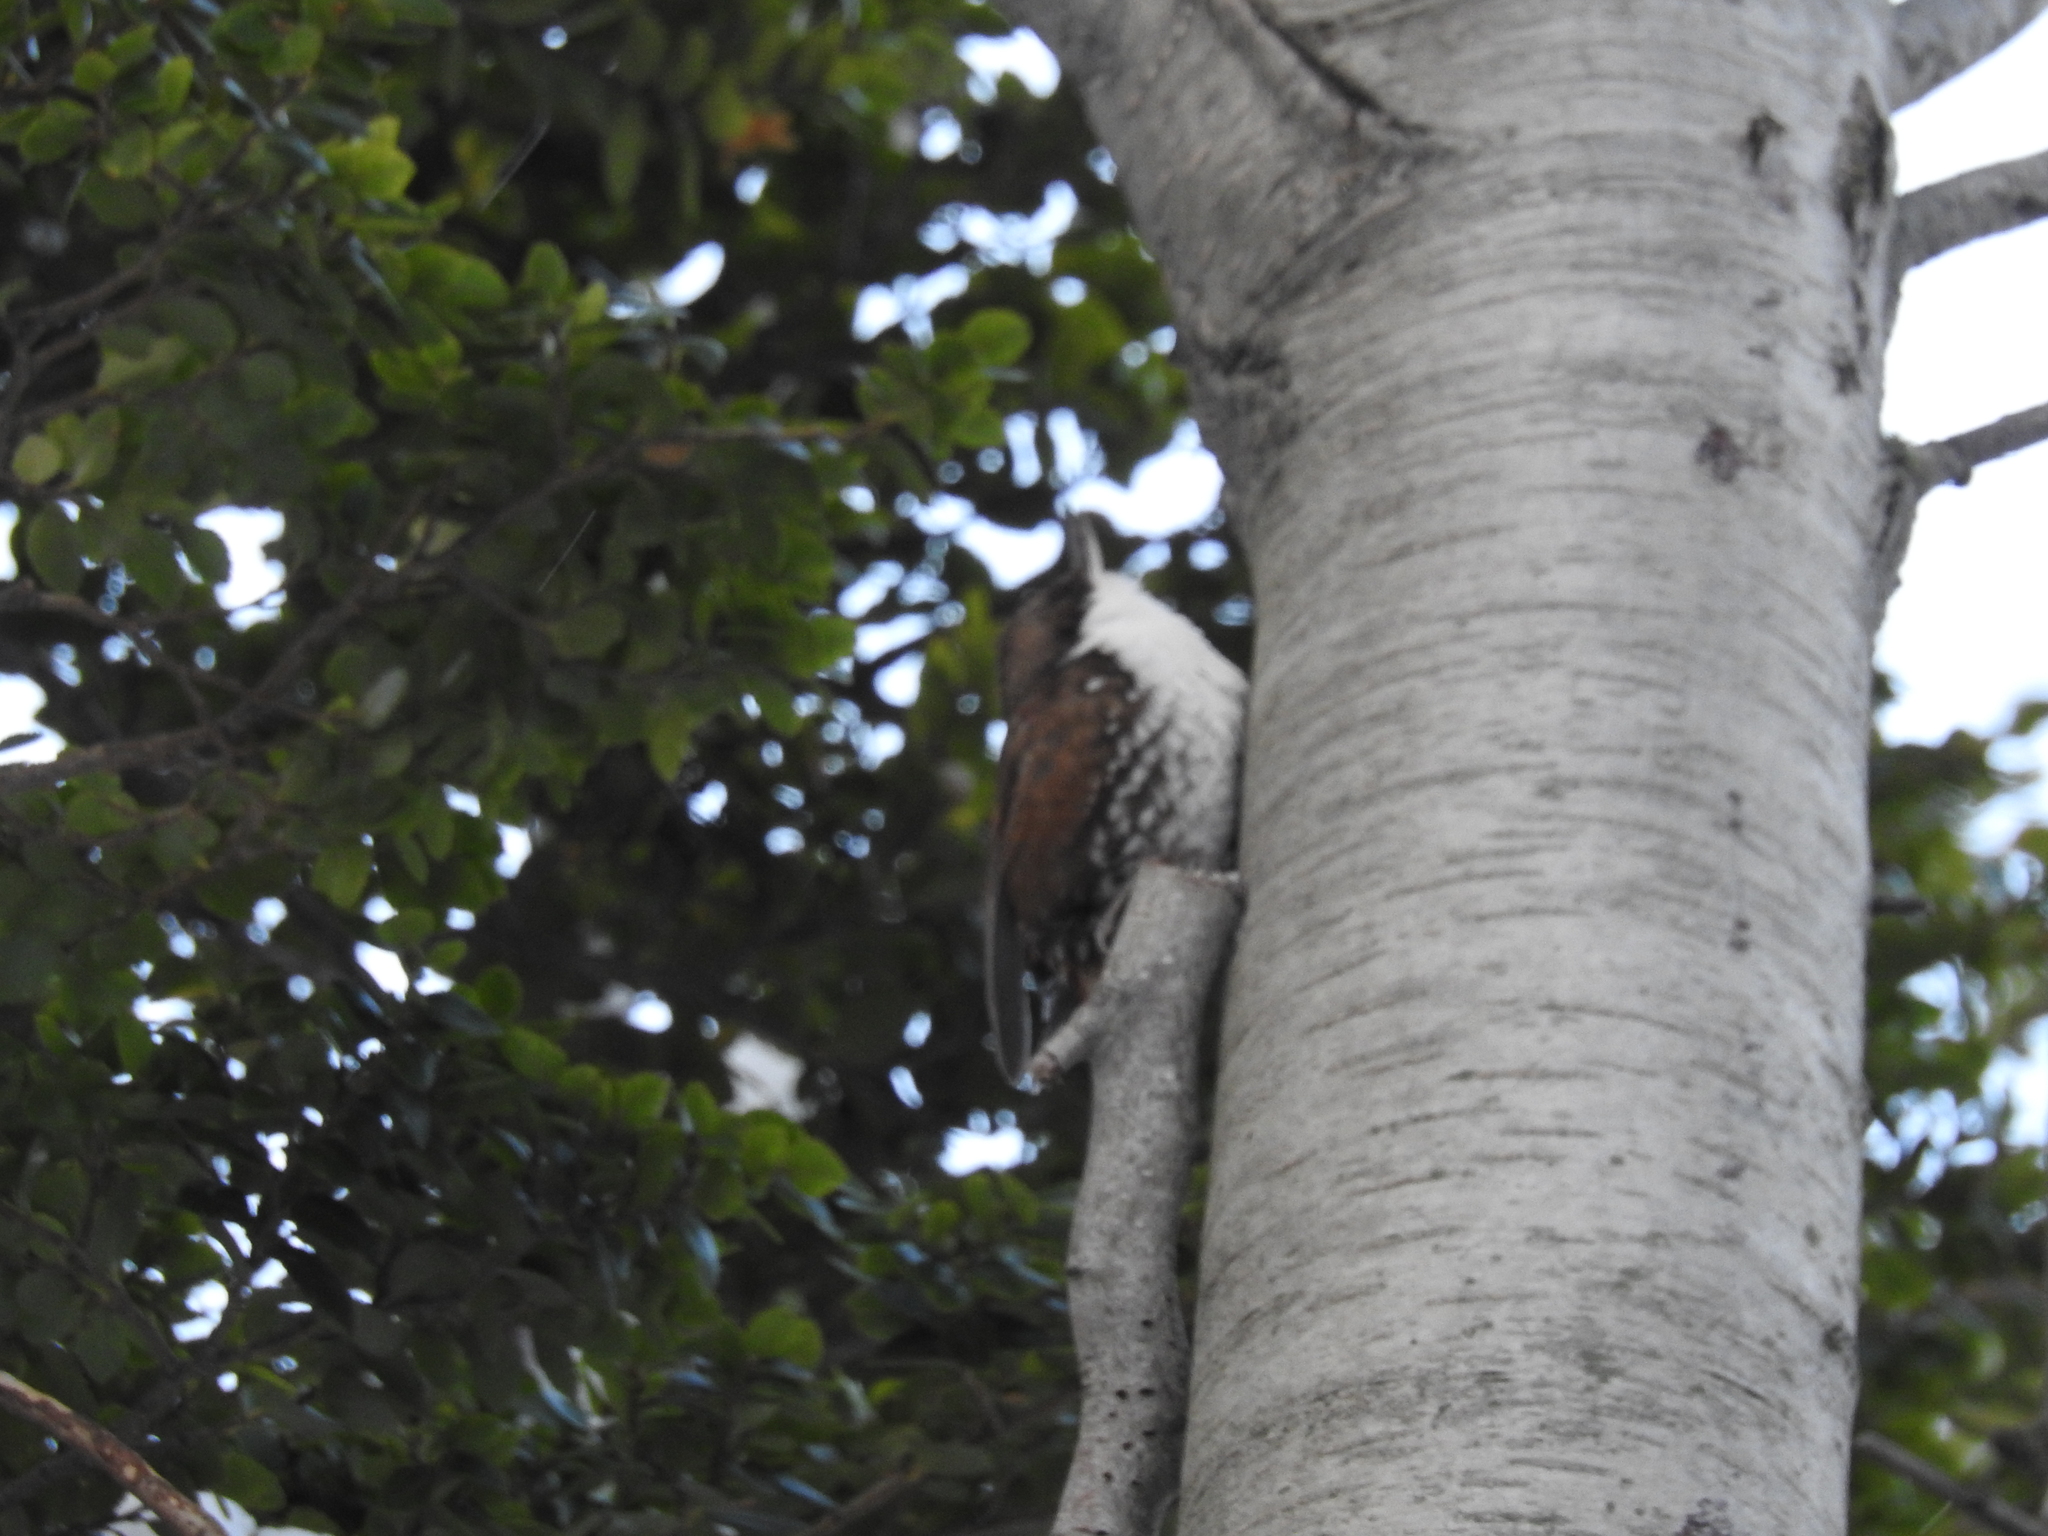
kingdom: Animalia
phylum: Chordata
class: Aves
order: Passeriformes
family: Furnariidae
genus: Pygarrhichas
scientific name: Pygarrhichas albogularis
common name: White-throated treerunner
